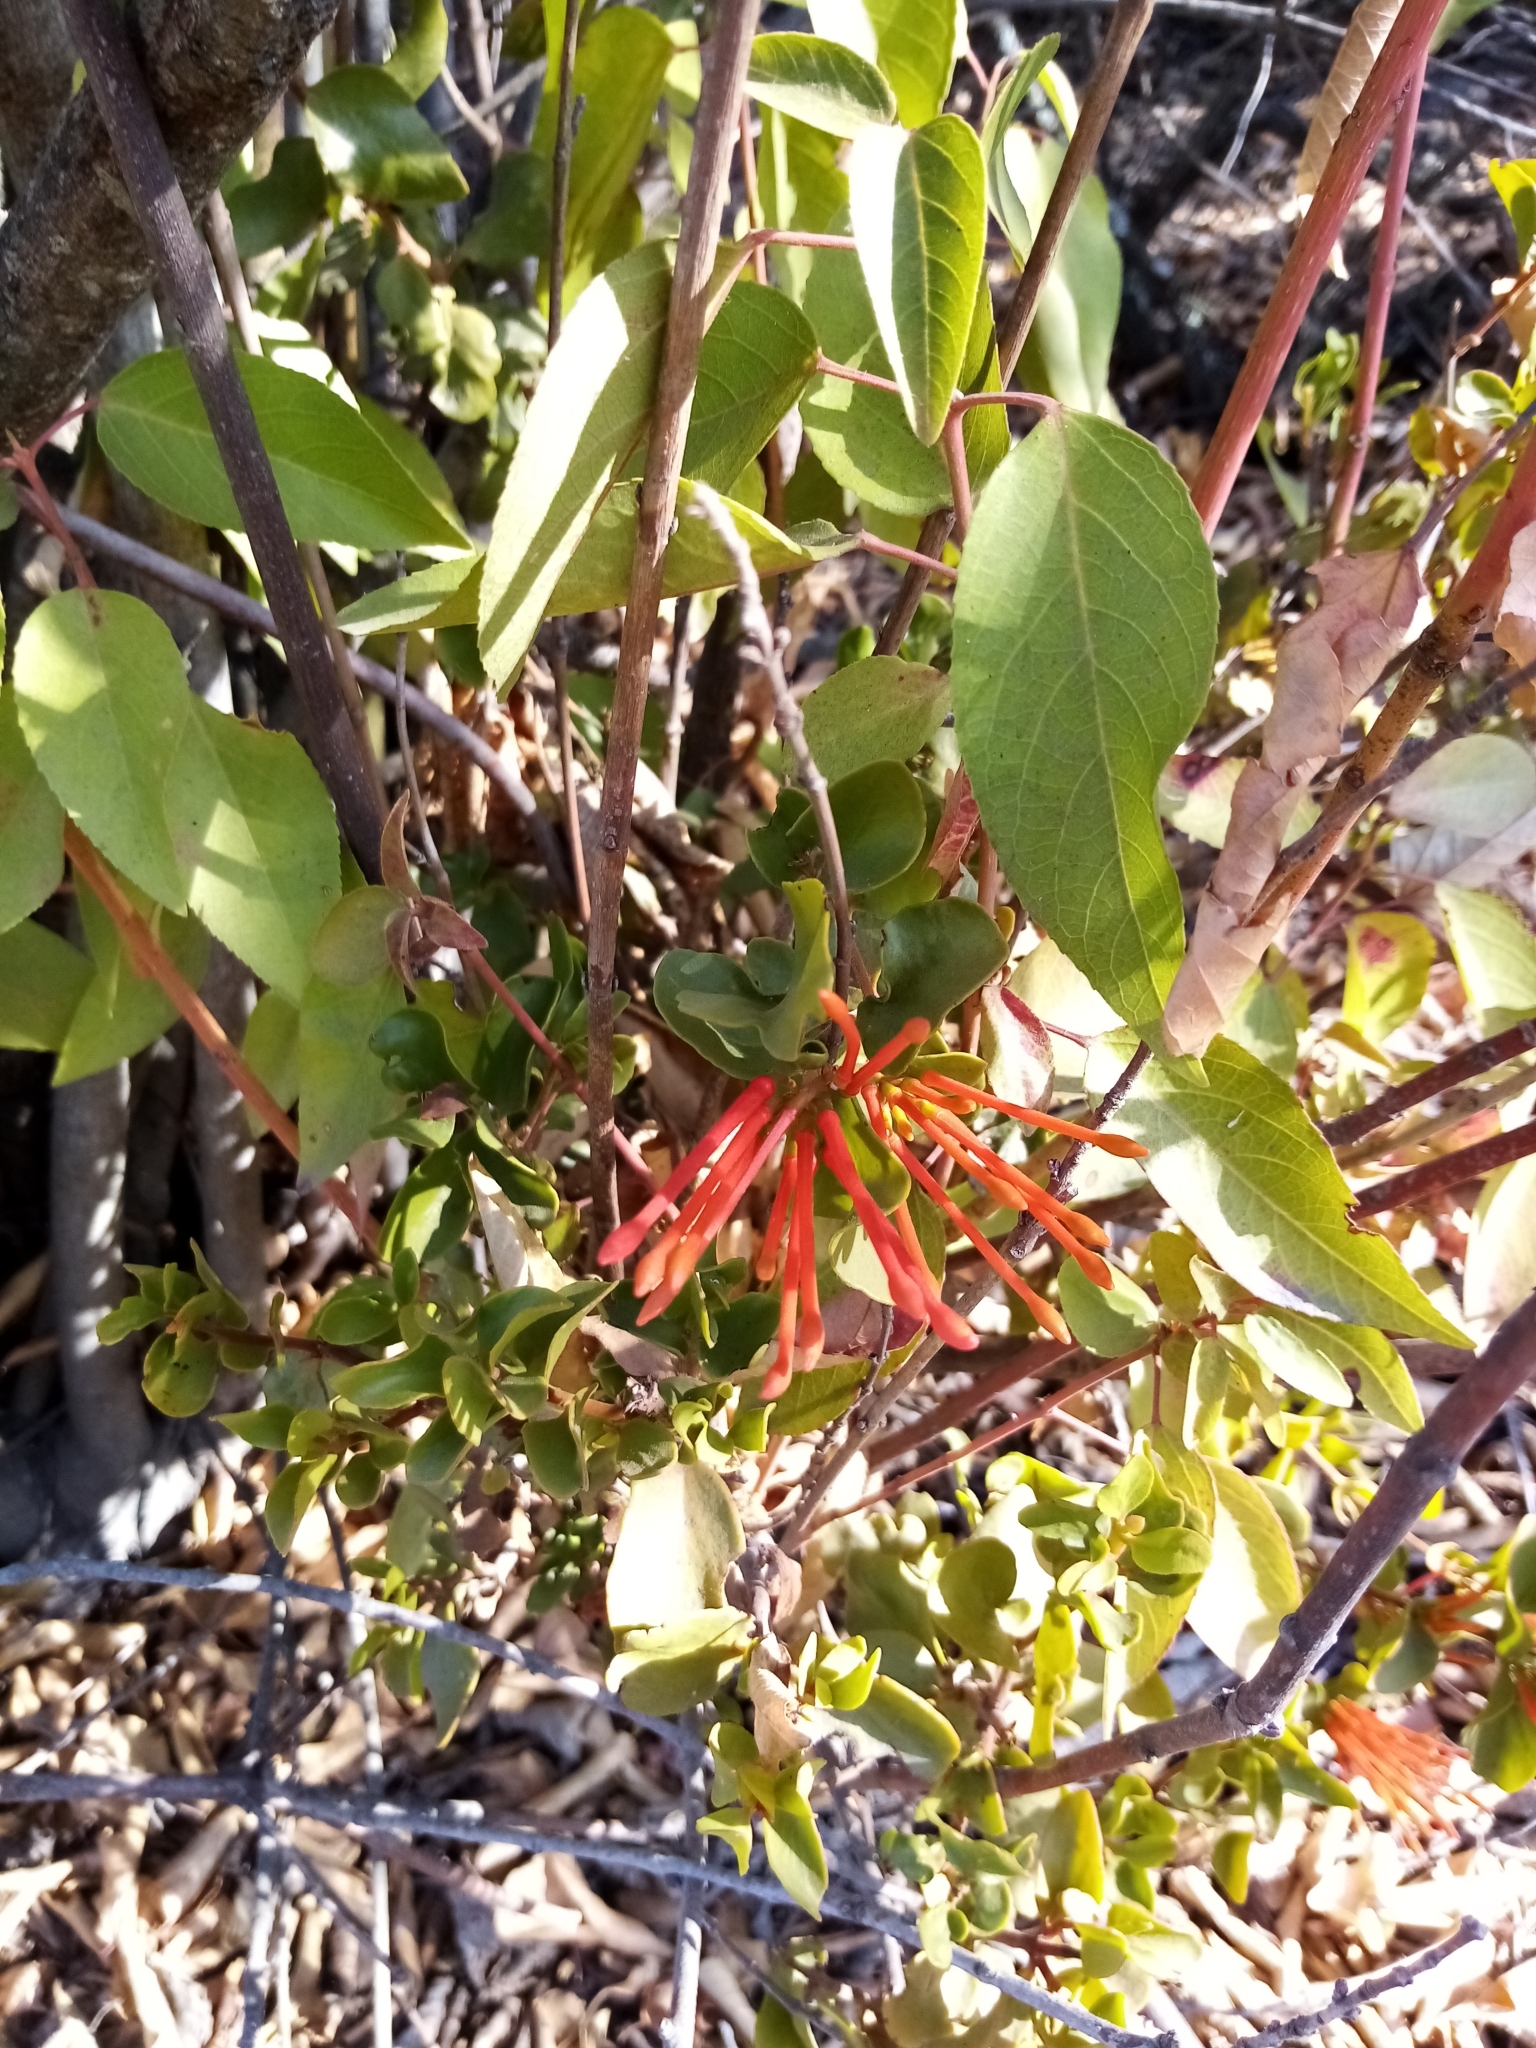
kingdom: Plantae
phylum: Tracheophyta
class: Magnoliopsida
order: Santalales
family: Loranthaceae
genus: Tristerix
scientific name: Tristerix corymbosus
